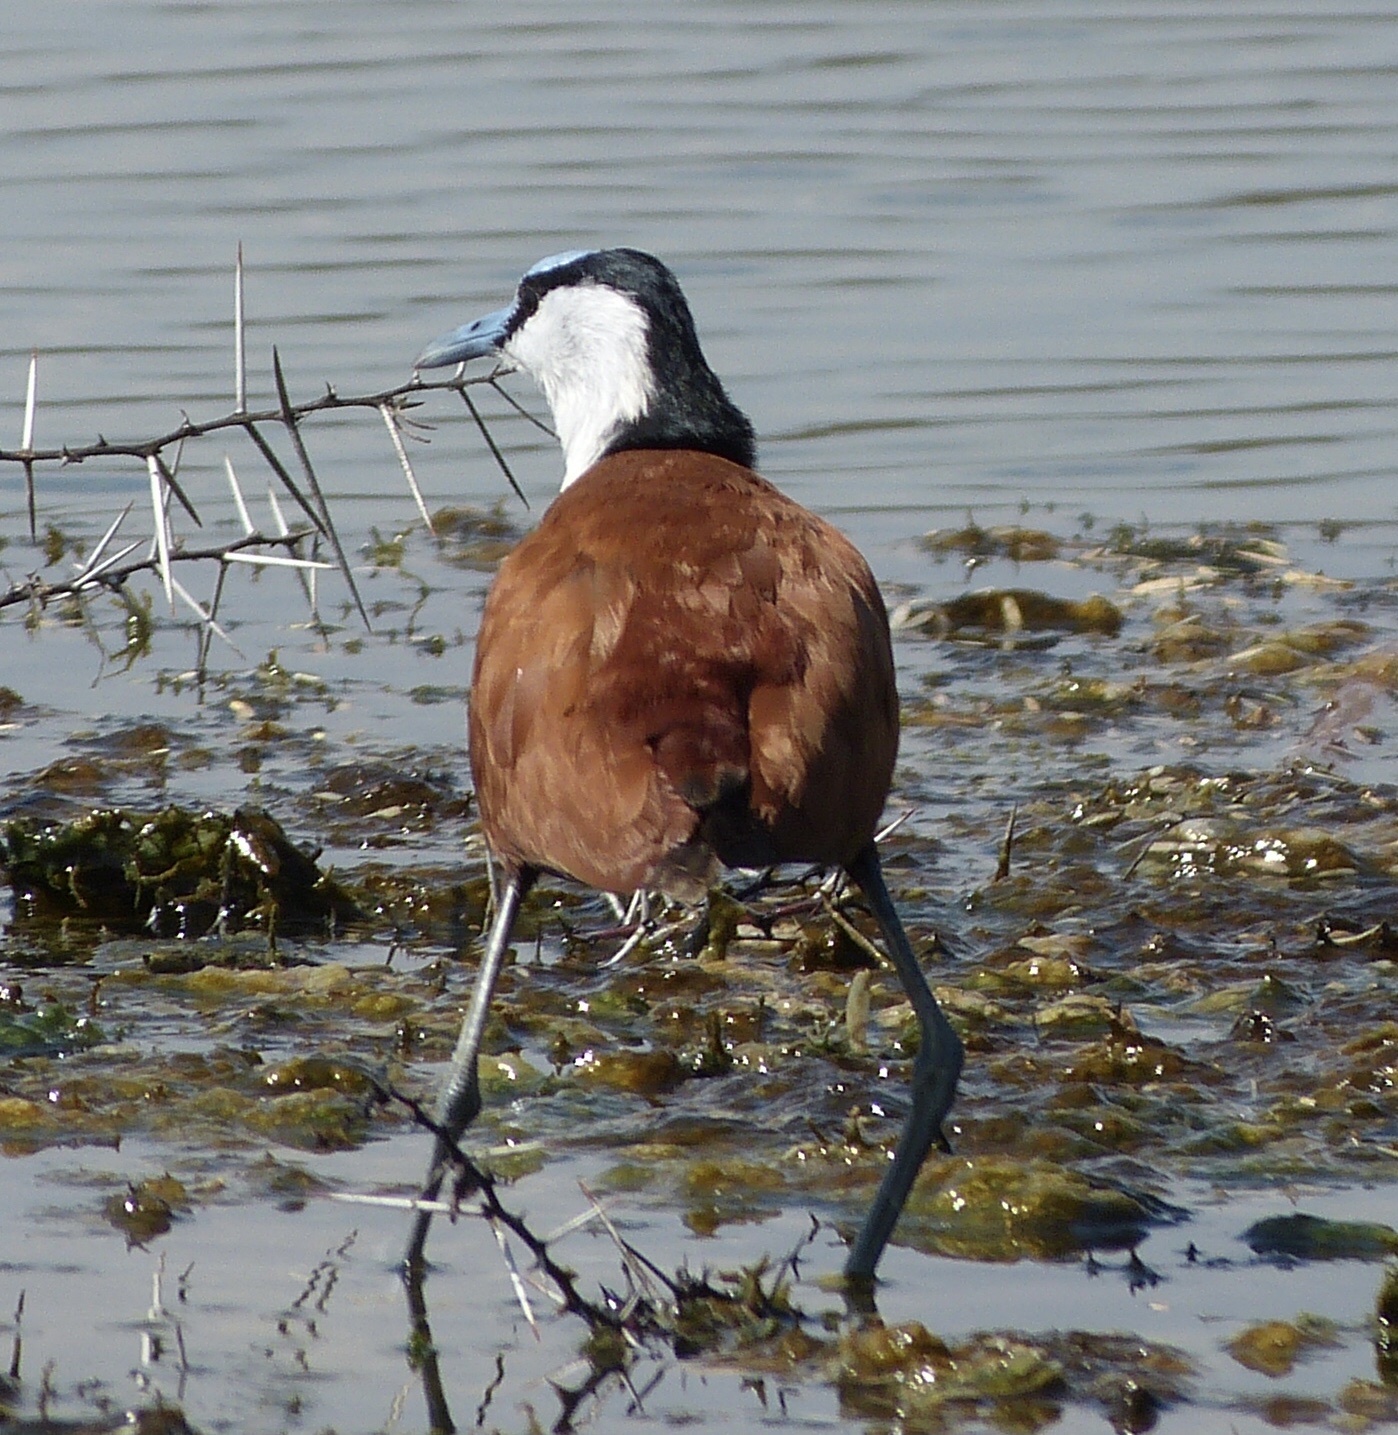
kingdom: Animalia
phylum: Chordata
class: Aves
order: Charadriiformes
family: Jacanidae
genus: Actophilornis
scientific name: Actophilornis africanus
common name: African jacana
